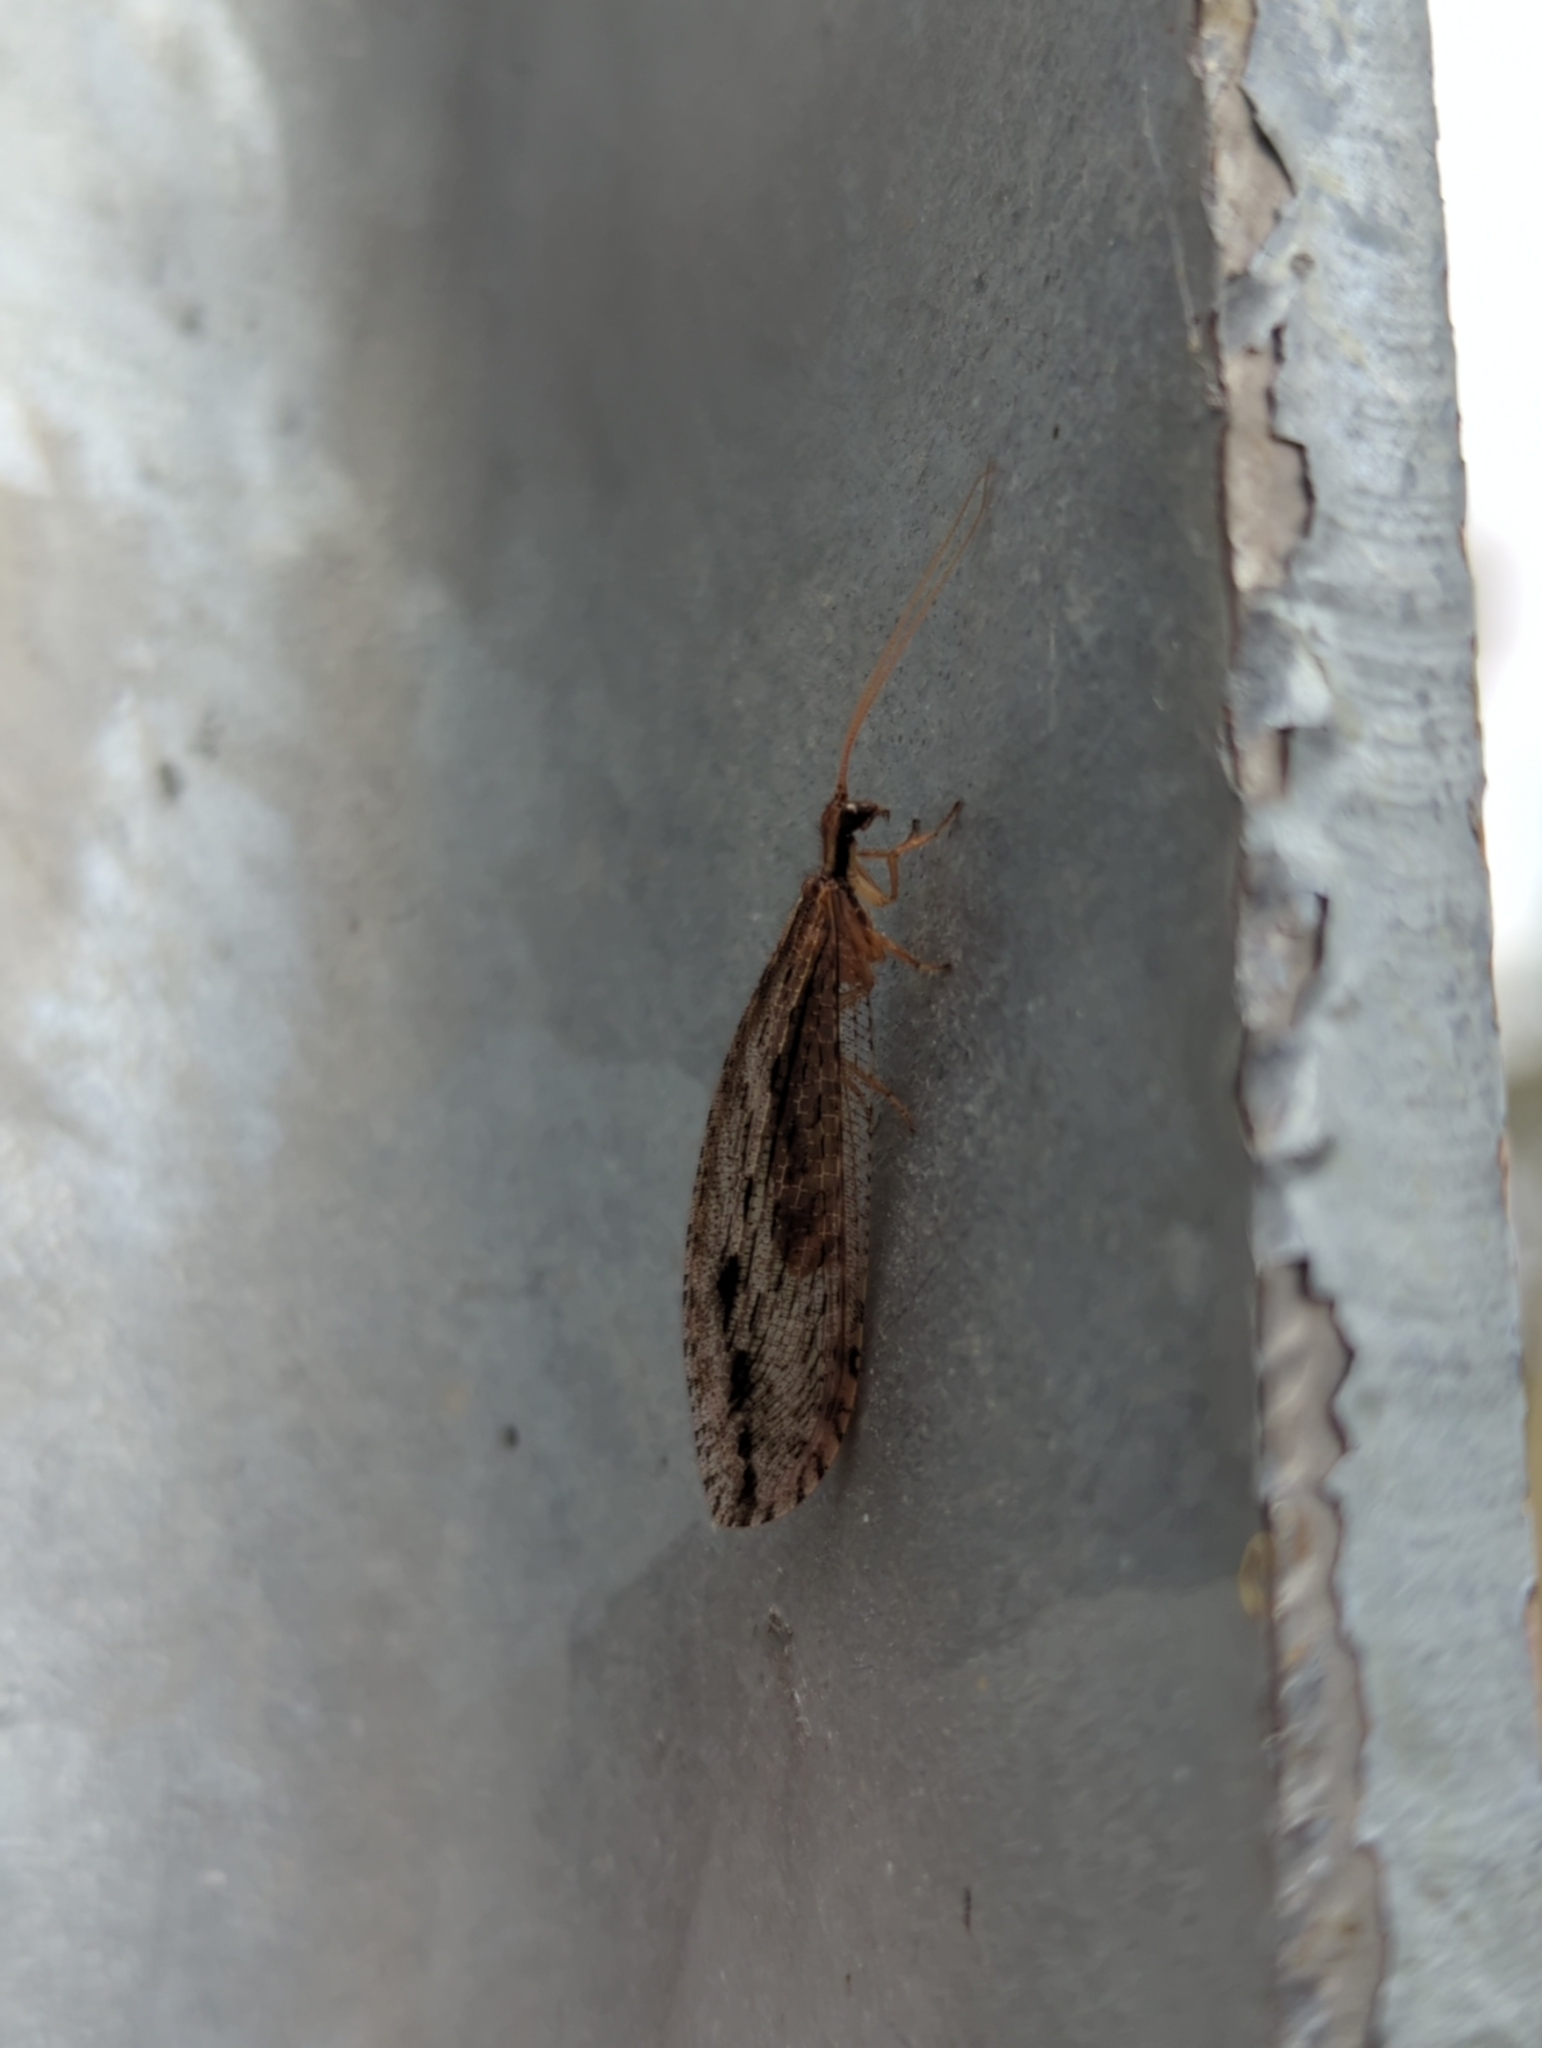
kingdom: Animalia
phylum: Arthropoda
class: Insecta
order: Neuroptera
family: Osmylidae
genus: Stenosmylus
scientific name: Stenosmylus stenopterus
